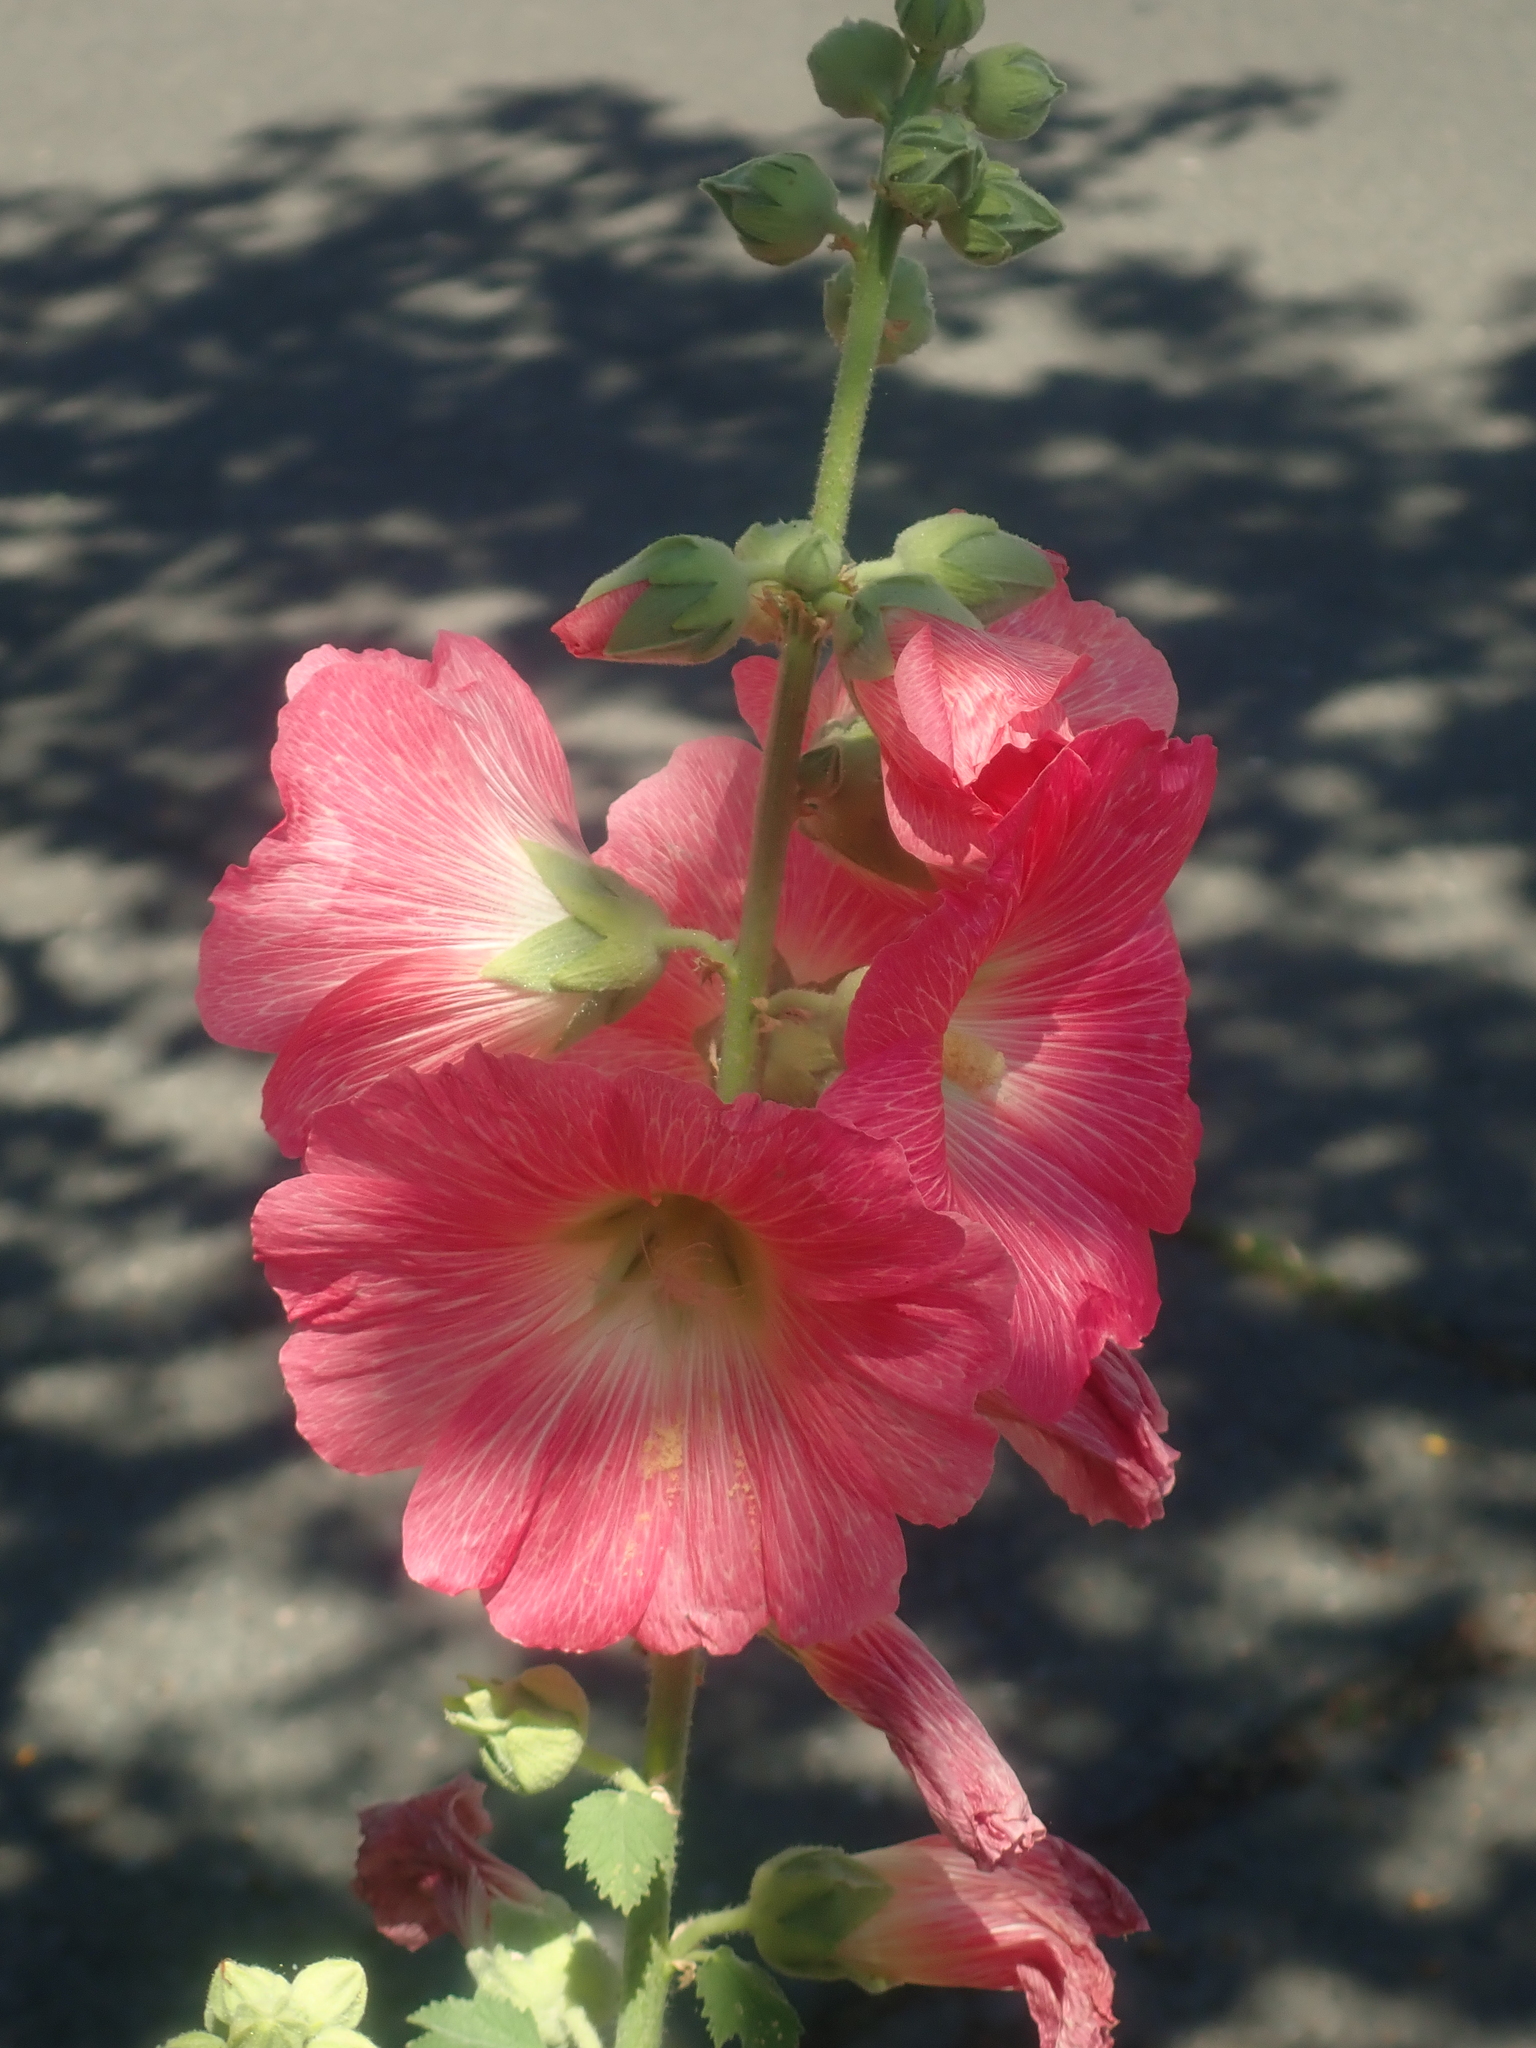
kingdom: Plantae
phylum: Tracheophyta
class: Magnoliopsida
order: Malvales
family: Malvaceae
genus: Alcea
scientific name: Alcea rosea
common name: Hollyhock
